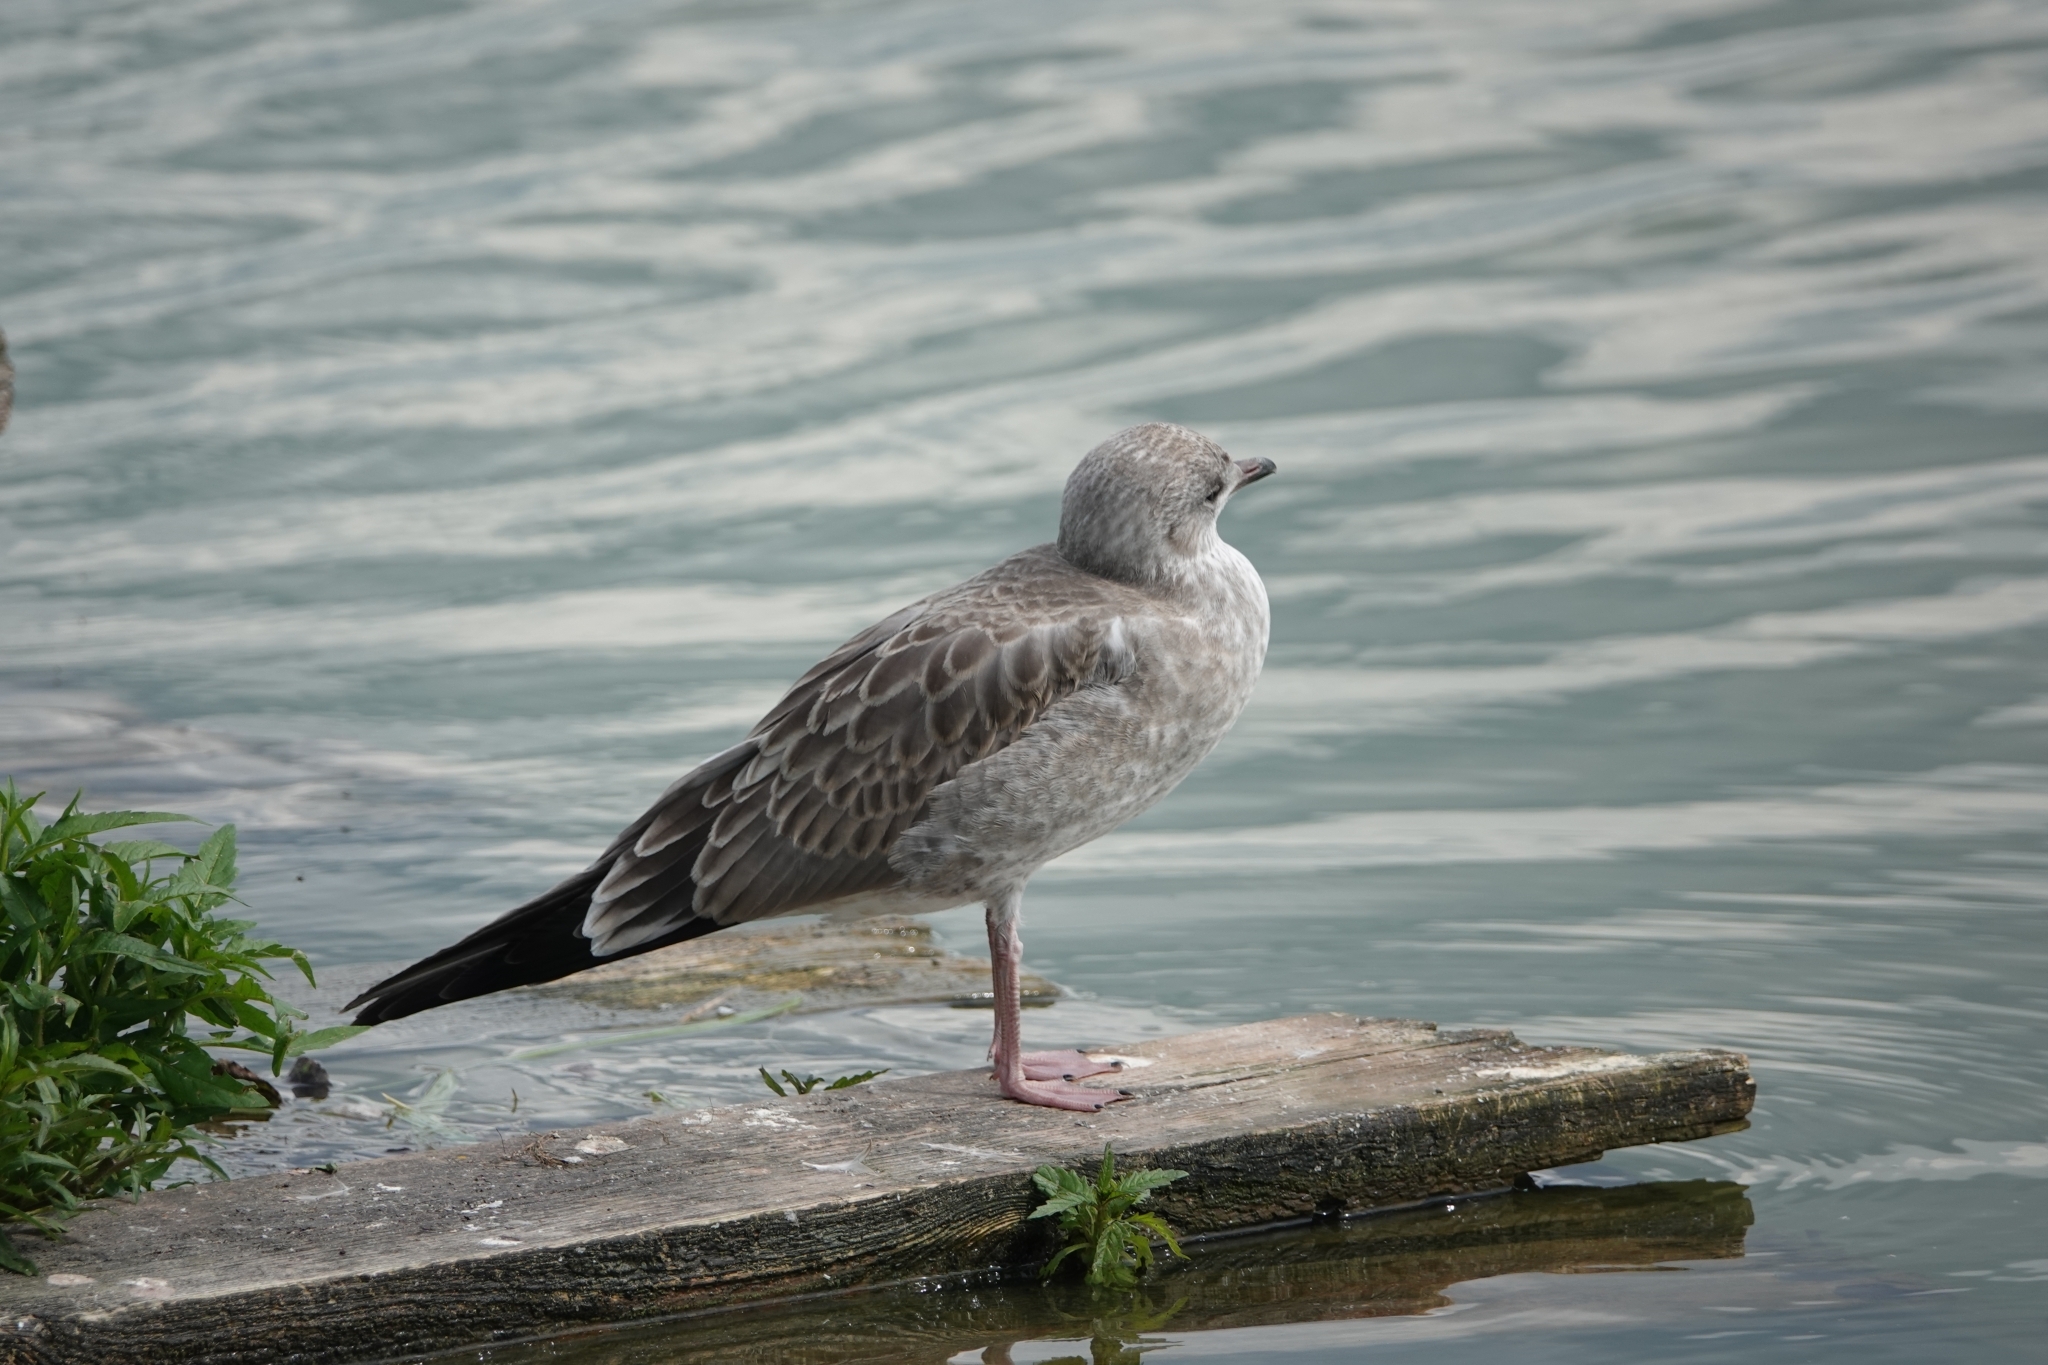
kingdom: Animalia
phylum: Chordata
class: Aves
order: Charadriiformes
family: Laridae
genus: Larus
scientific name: Larus canus
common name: Mew gull
